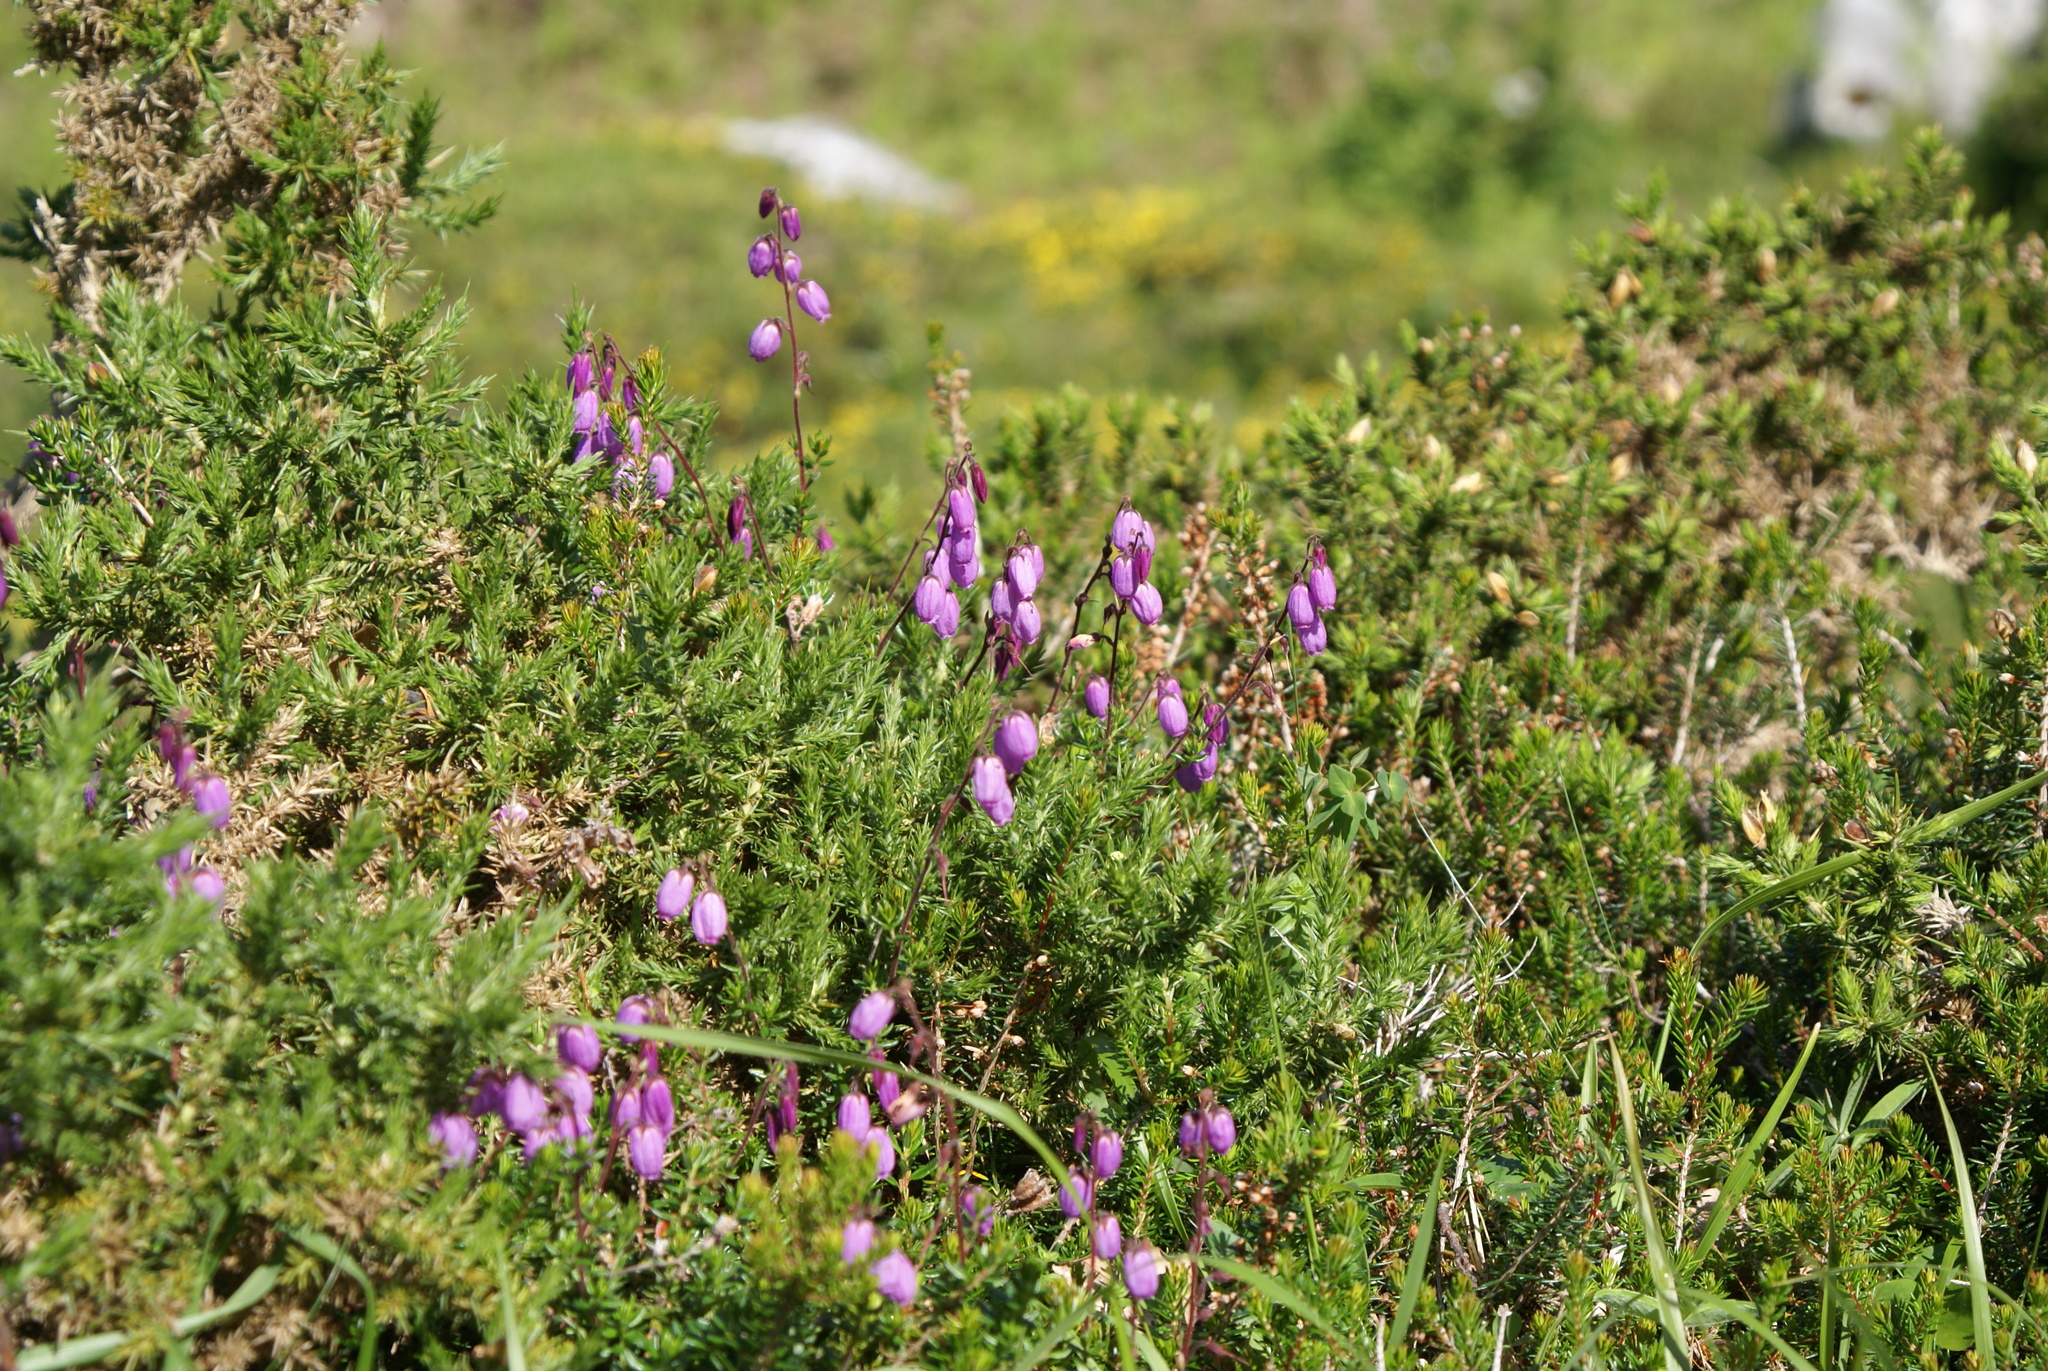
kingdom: Plantae
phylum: Tracheophyta
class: Magnoliopsida
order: Ericales
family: Ericaceae
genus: Daboecia
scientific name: Daboecia cantabrica
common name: St. dabeoc's-heath
